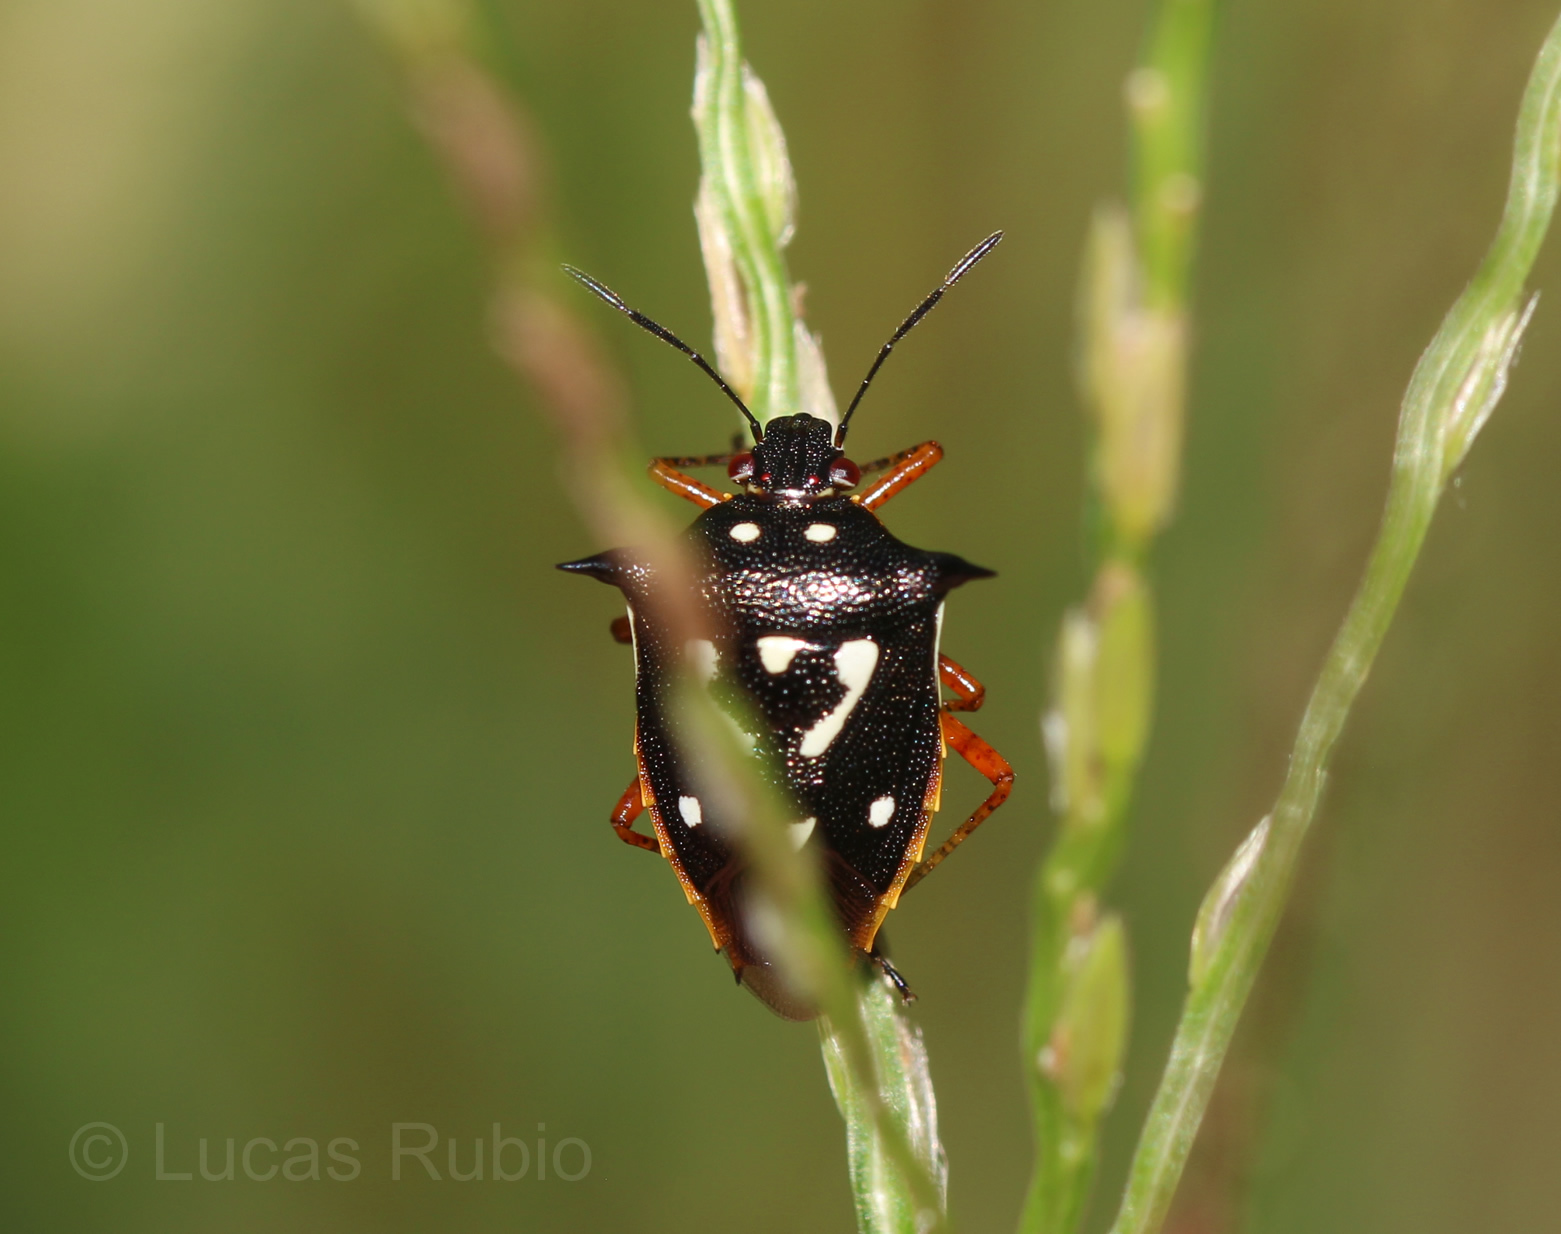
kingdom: Animalia
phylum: Arthropoda
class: Insecta
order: Hemiptera
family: Pentatomidae
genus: Mormidea
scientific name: Mormidea v-luteum
